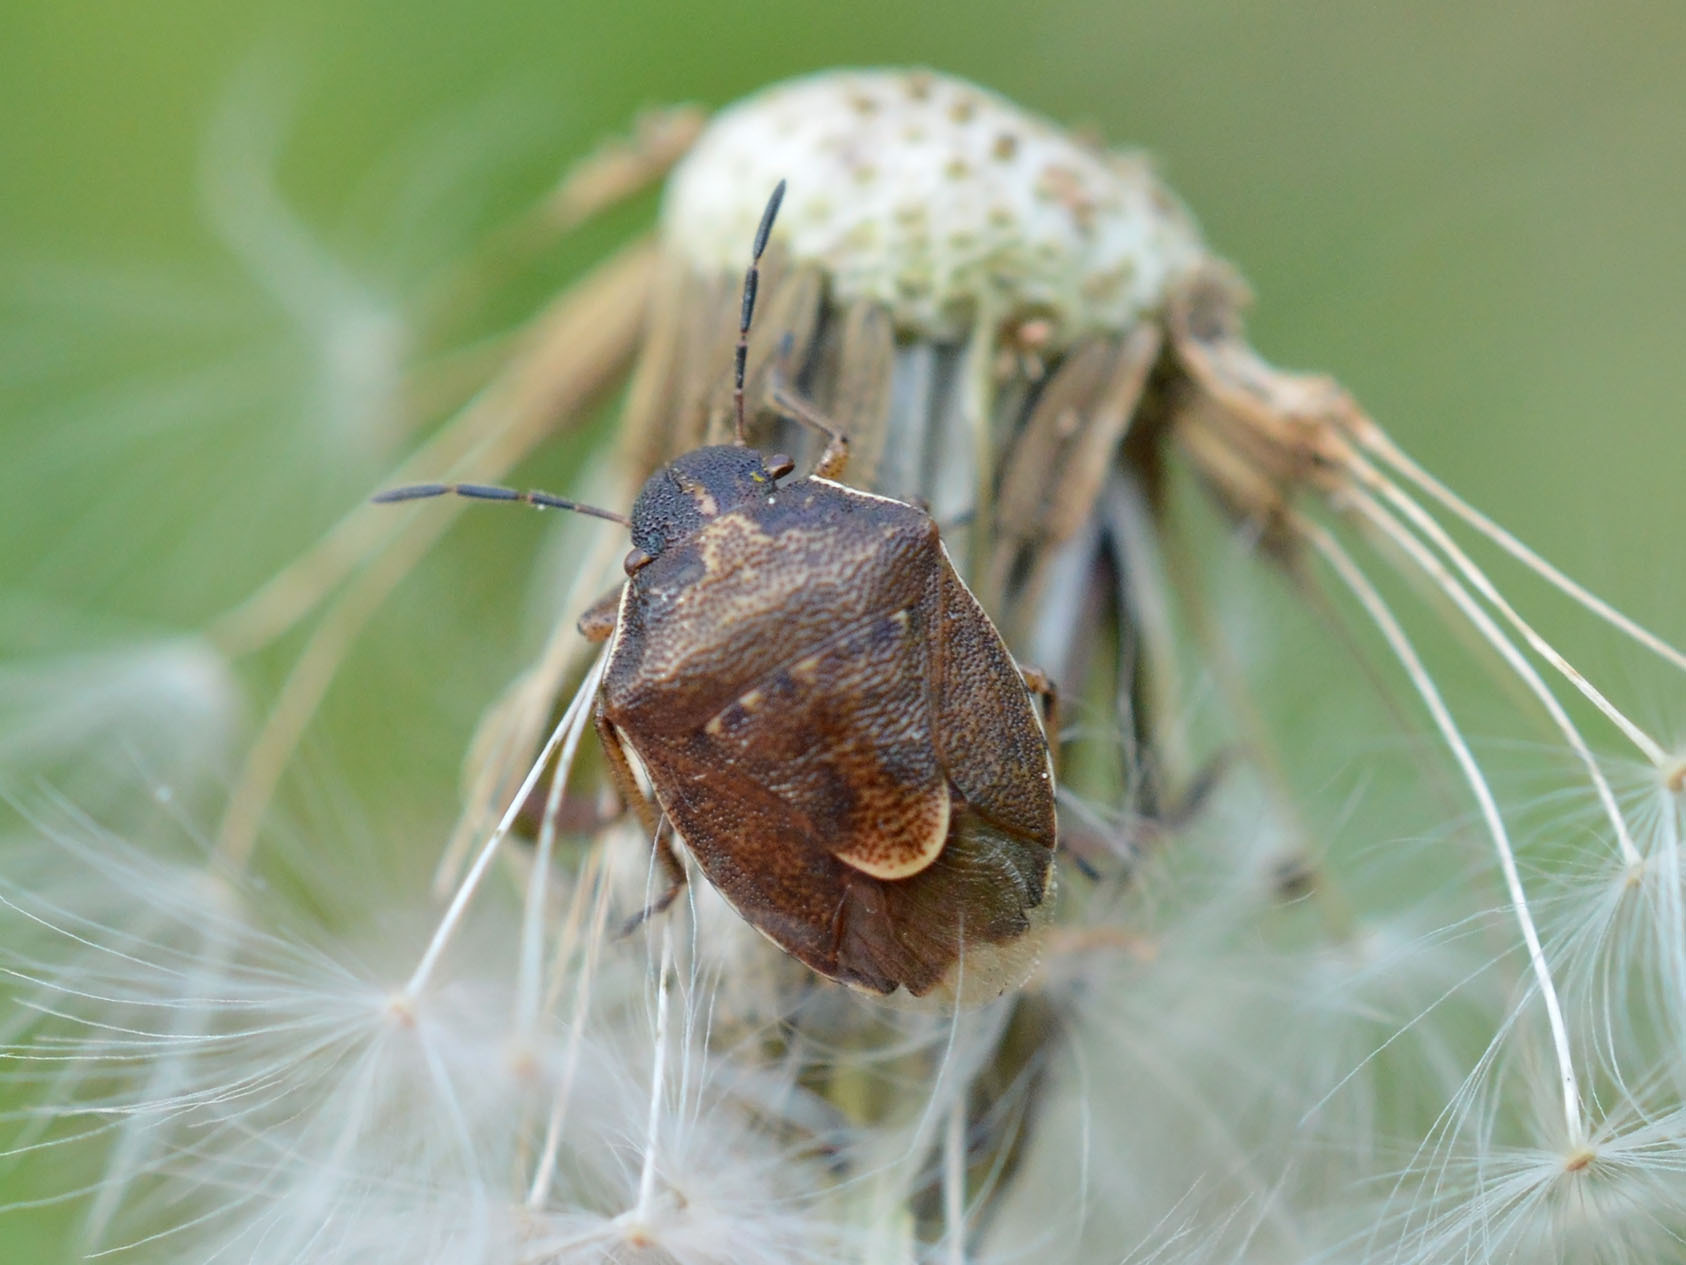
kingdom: Animalia
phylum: Arthropoda
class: Insecta
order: Hemiptera
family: Pentatomidae
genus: Rubiconia
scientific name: Rubiconia intermedia
